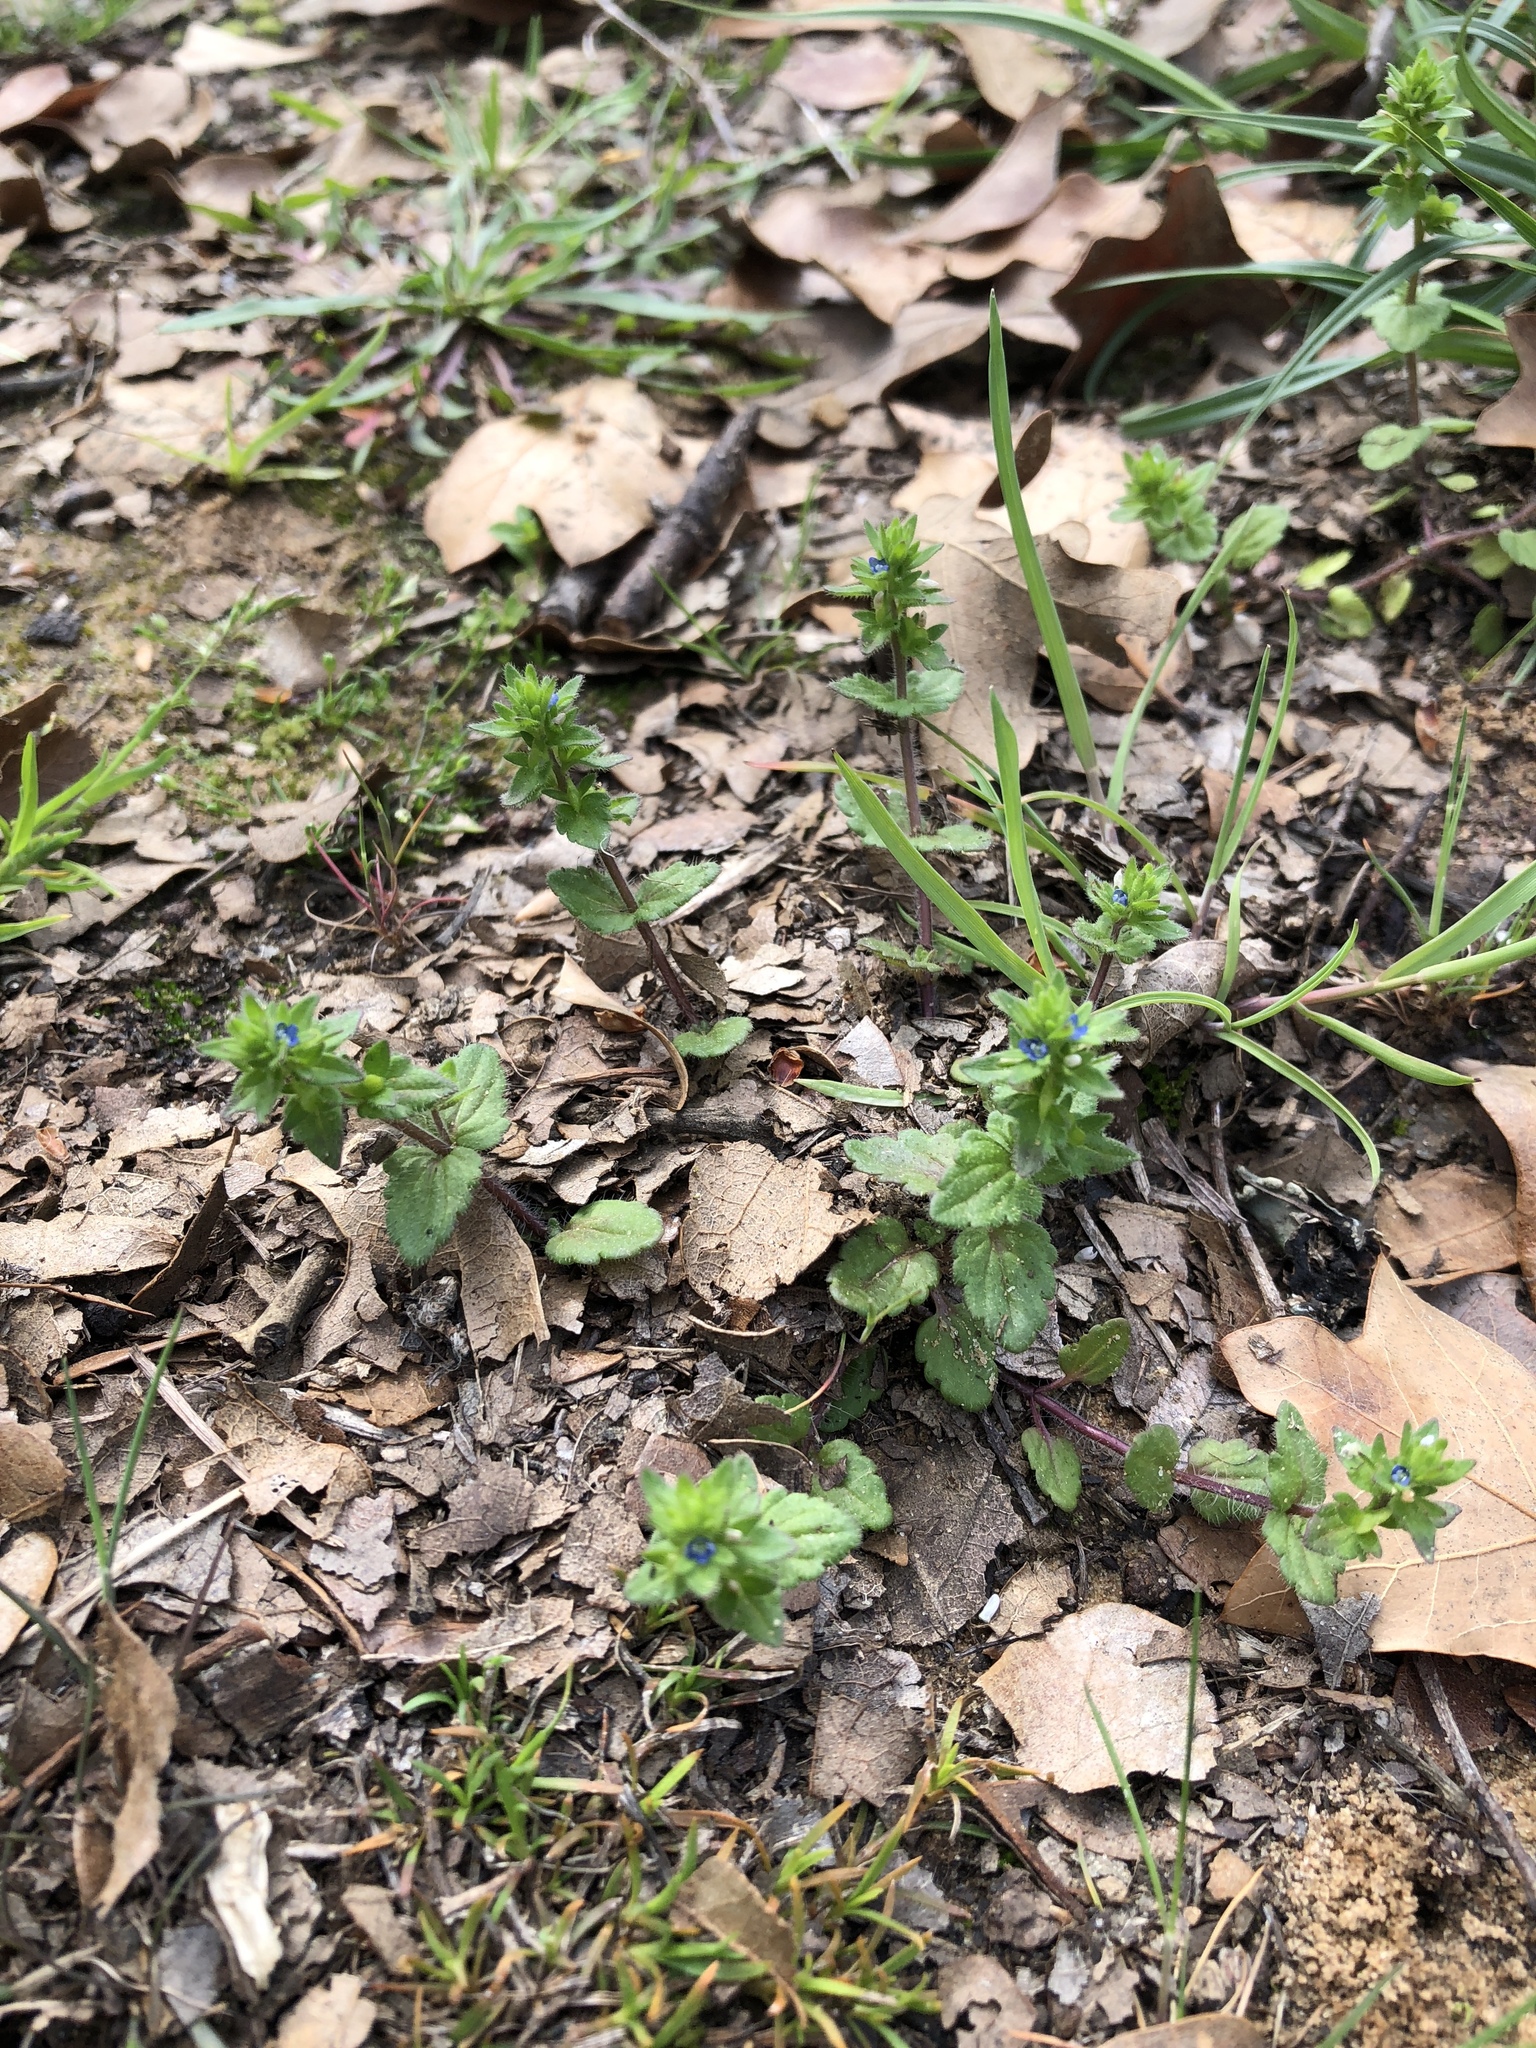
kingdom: Plantae
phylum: Tracheophyta
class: Magnoliopsida
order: Lamiales
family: Plantaginaceae
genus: Veronica
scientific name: Veronica arvensis
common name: Corn speedwell
